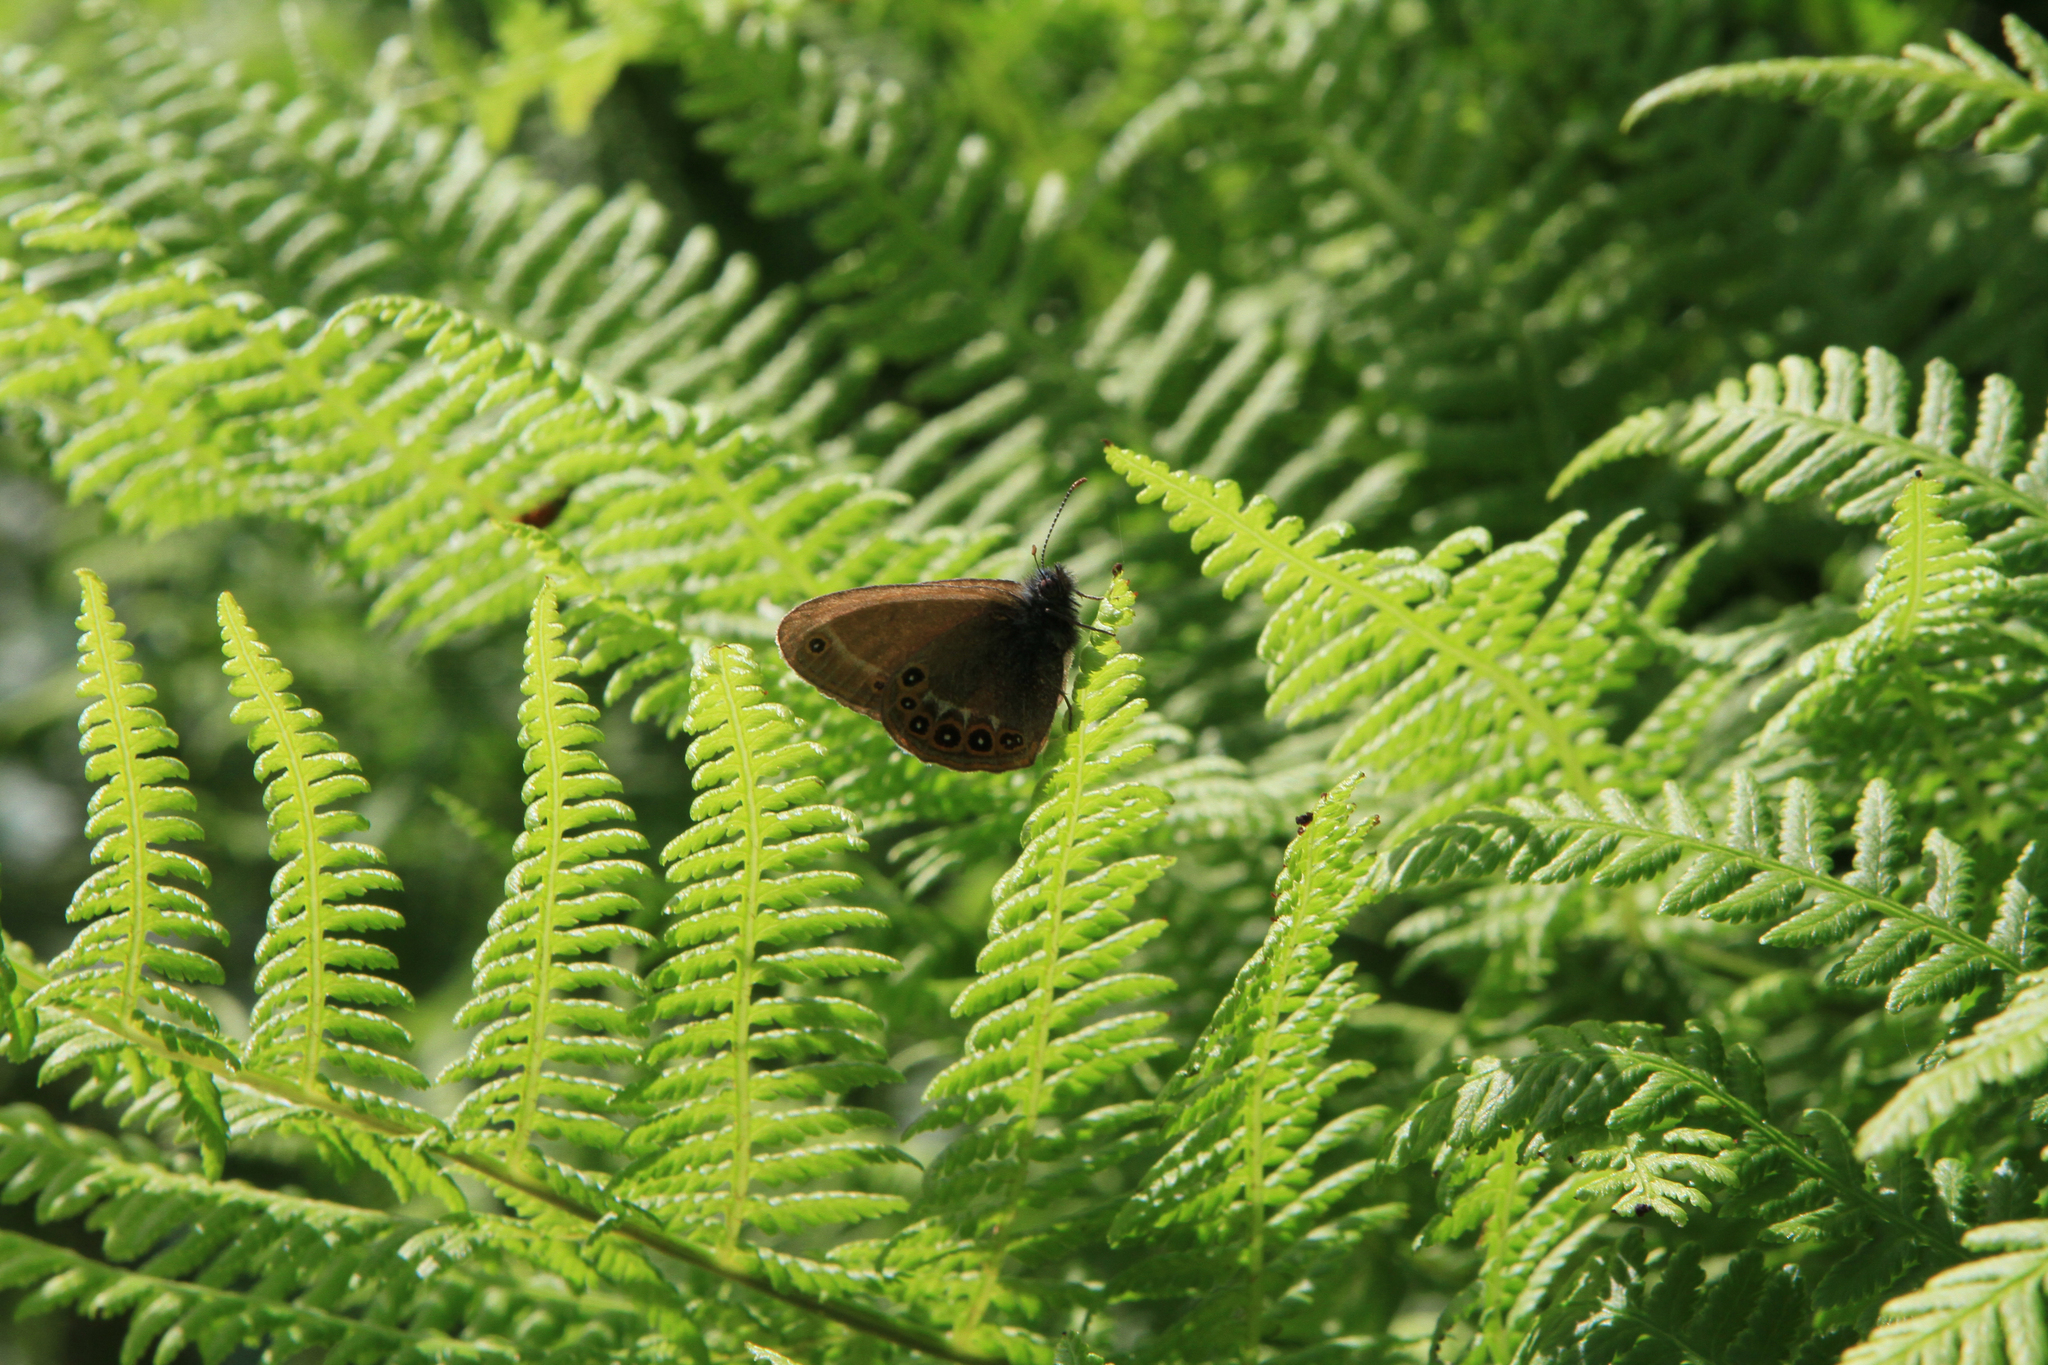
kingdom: Plantae
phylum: Tracheophyta
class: Polypodiopsida
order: Polypodiales
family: Athyriaceae
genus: Athyrium
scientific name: Athyrium filix-femina
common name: Lady fern
